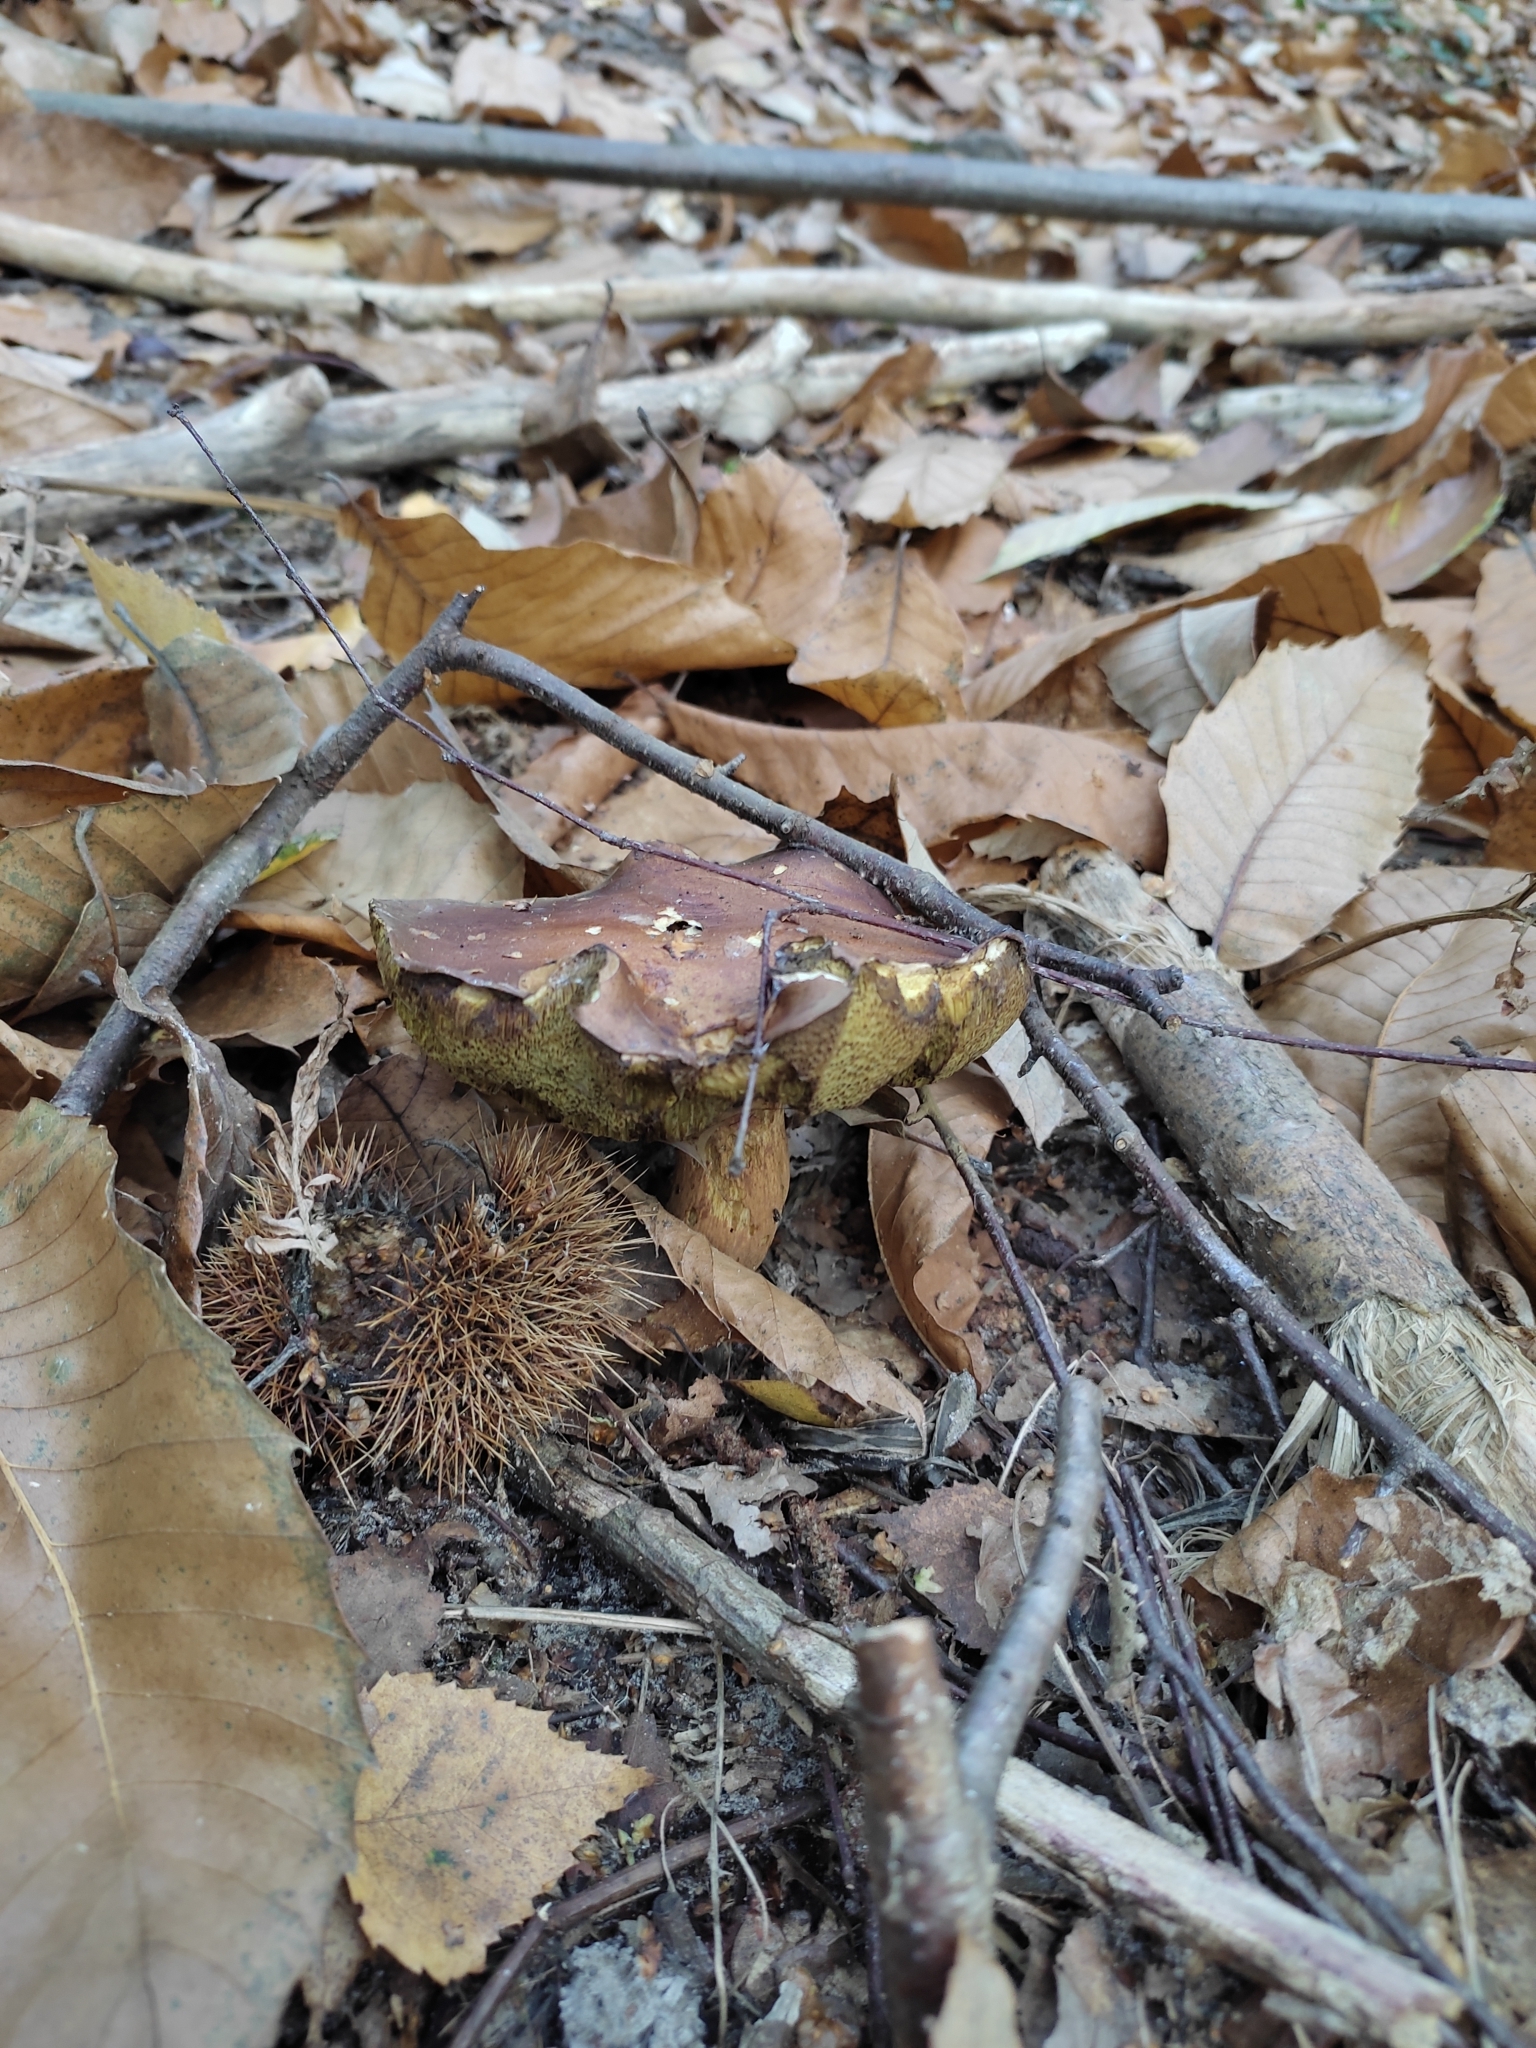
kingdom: Fungi
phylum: Basidiomycota
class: Agaricomycetes
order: Boletales
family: Boletaceae
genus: Imleria
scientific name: Imleria badia
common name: Bay bolete
